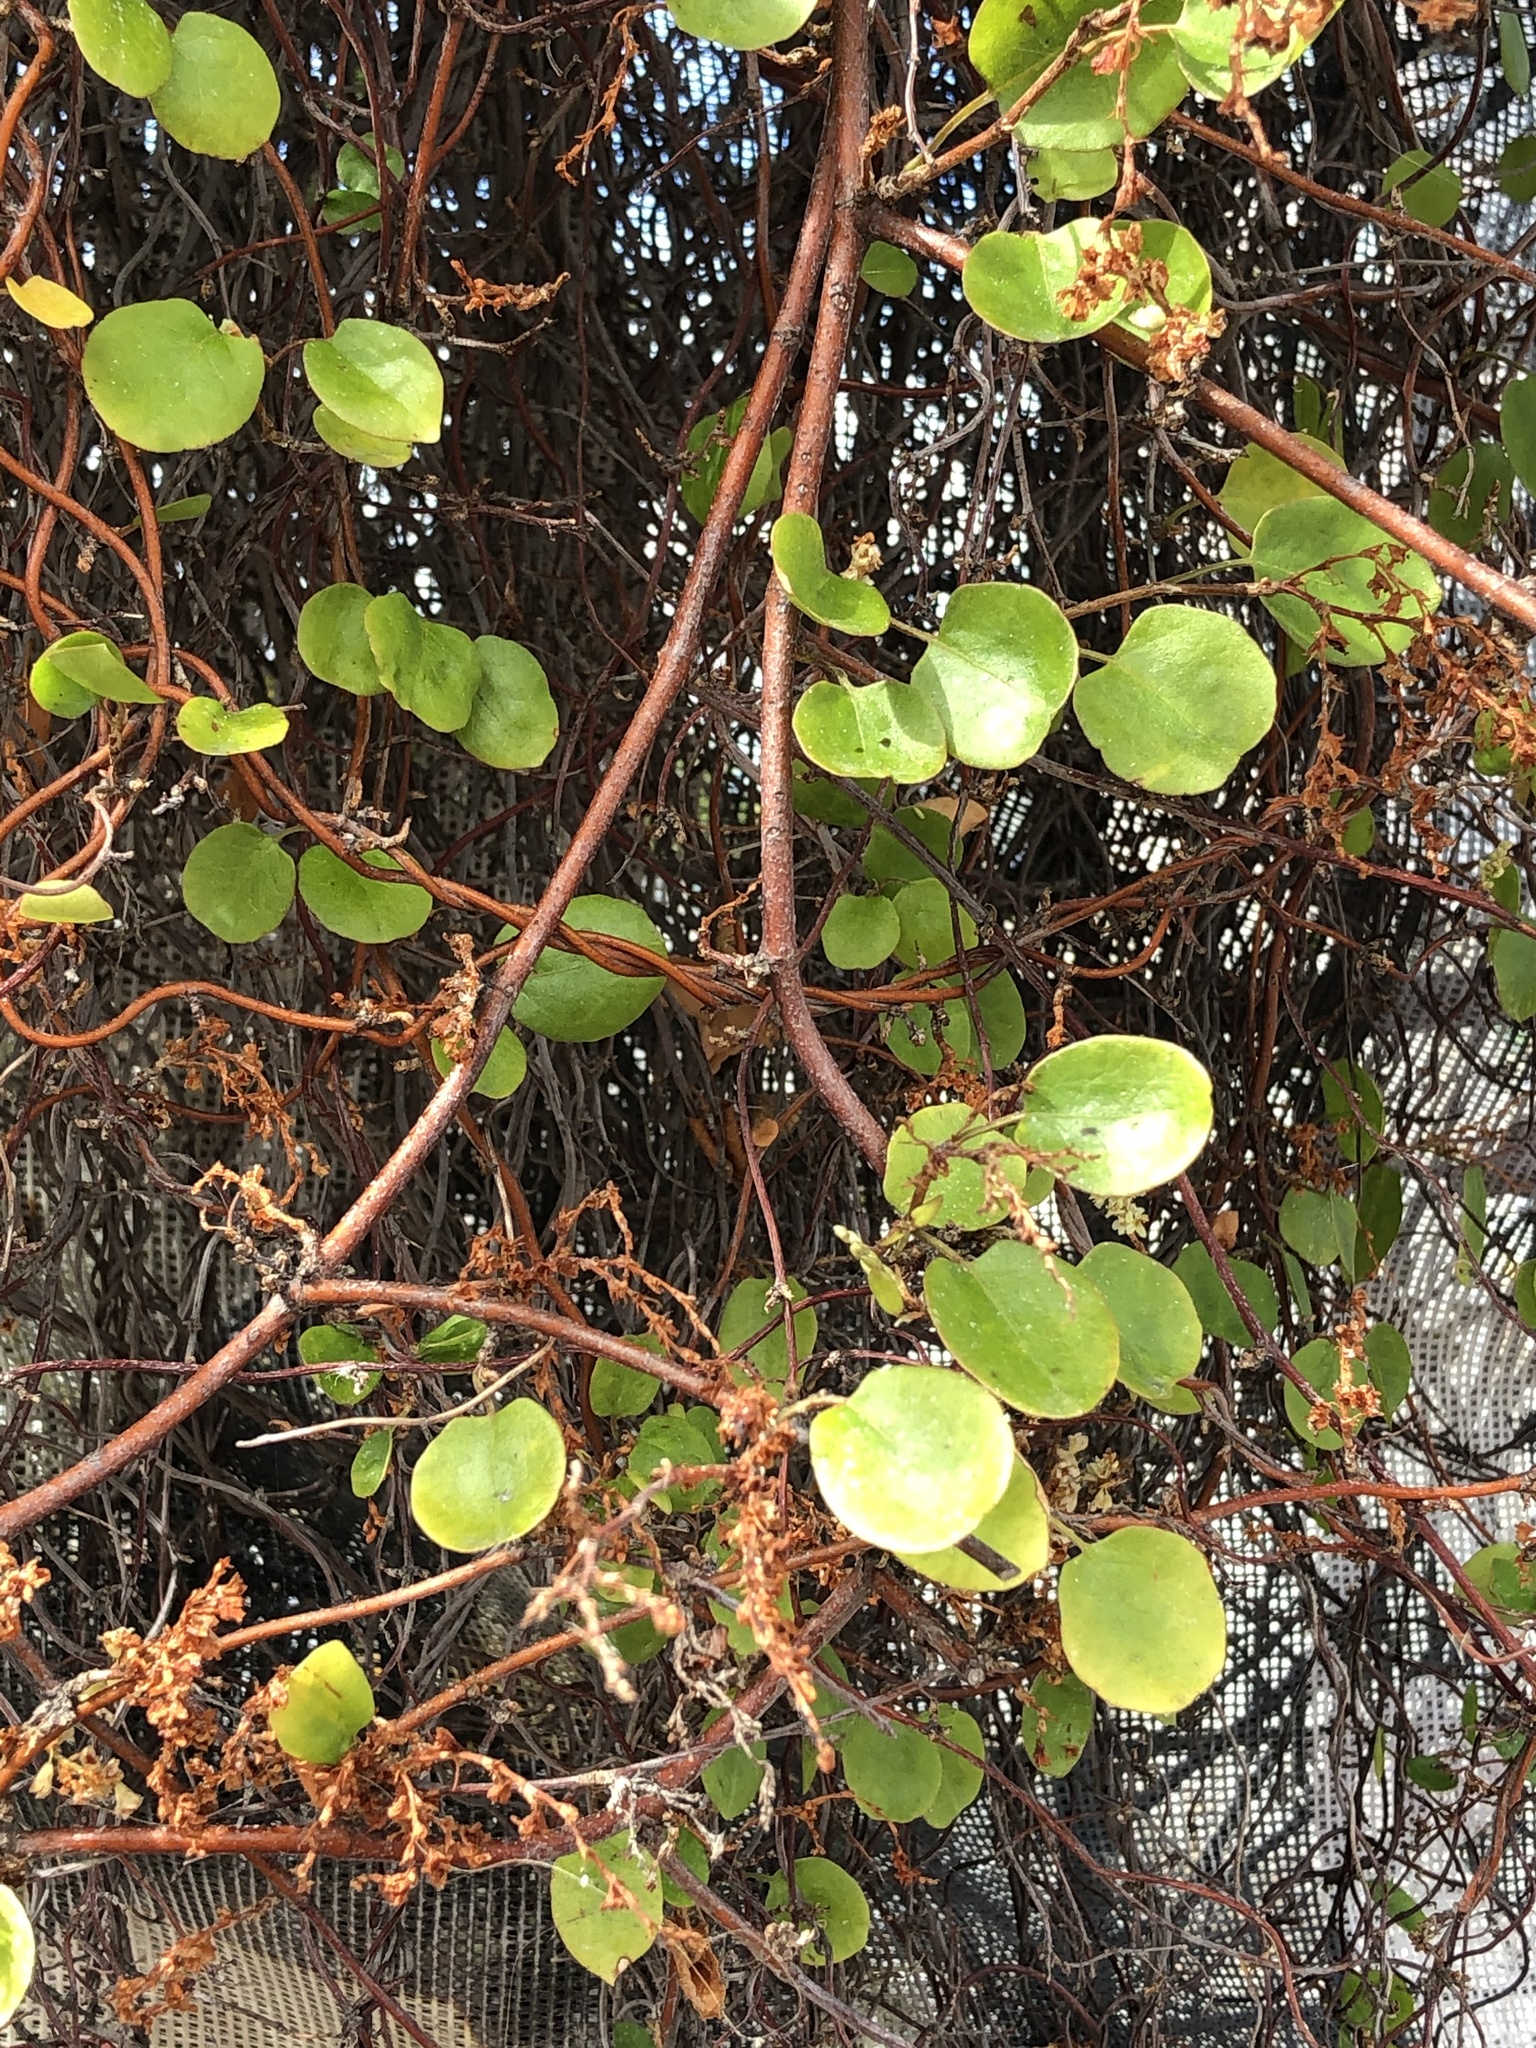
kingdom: Plantae
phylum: Tracheophyta
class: Magnoliopsida
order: Caryophyllales
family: Polygonaceae
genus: Muehlenbeckia
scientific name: Muehlenbeckia complexa
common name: Wireplant
